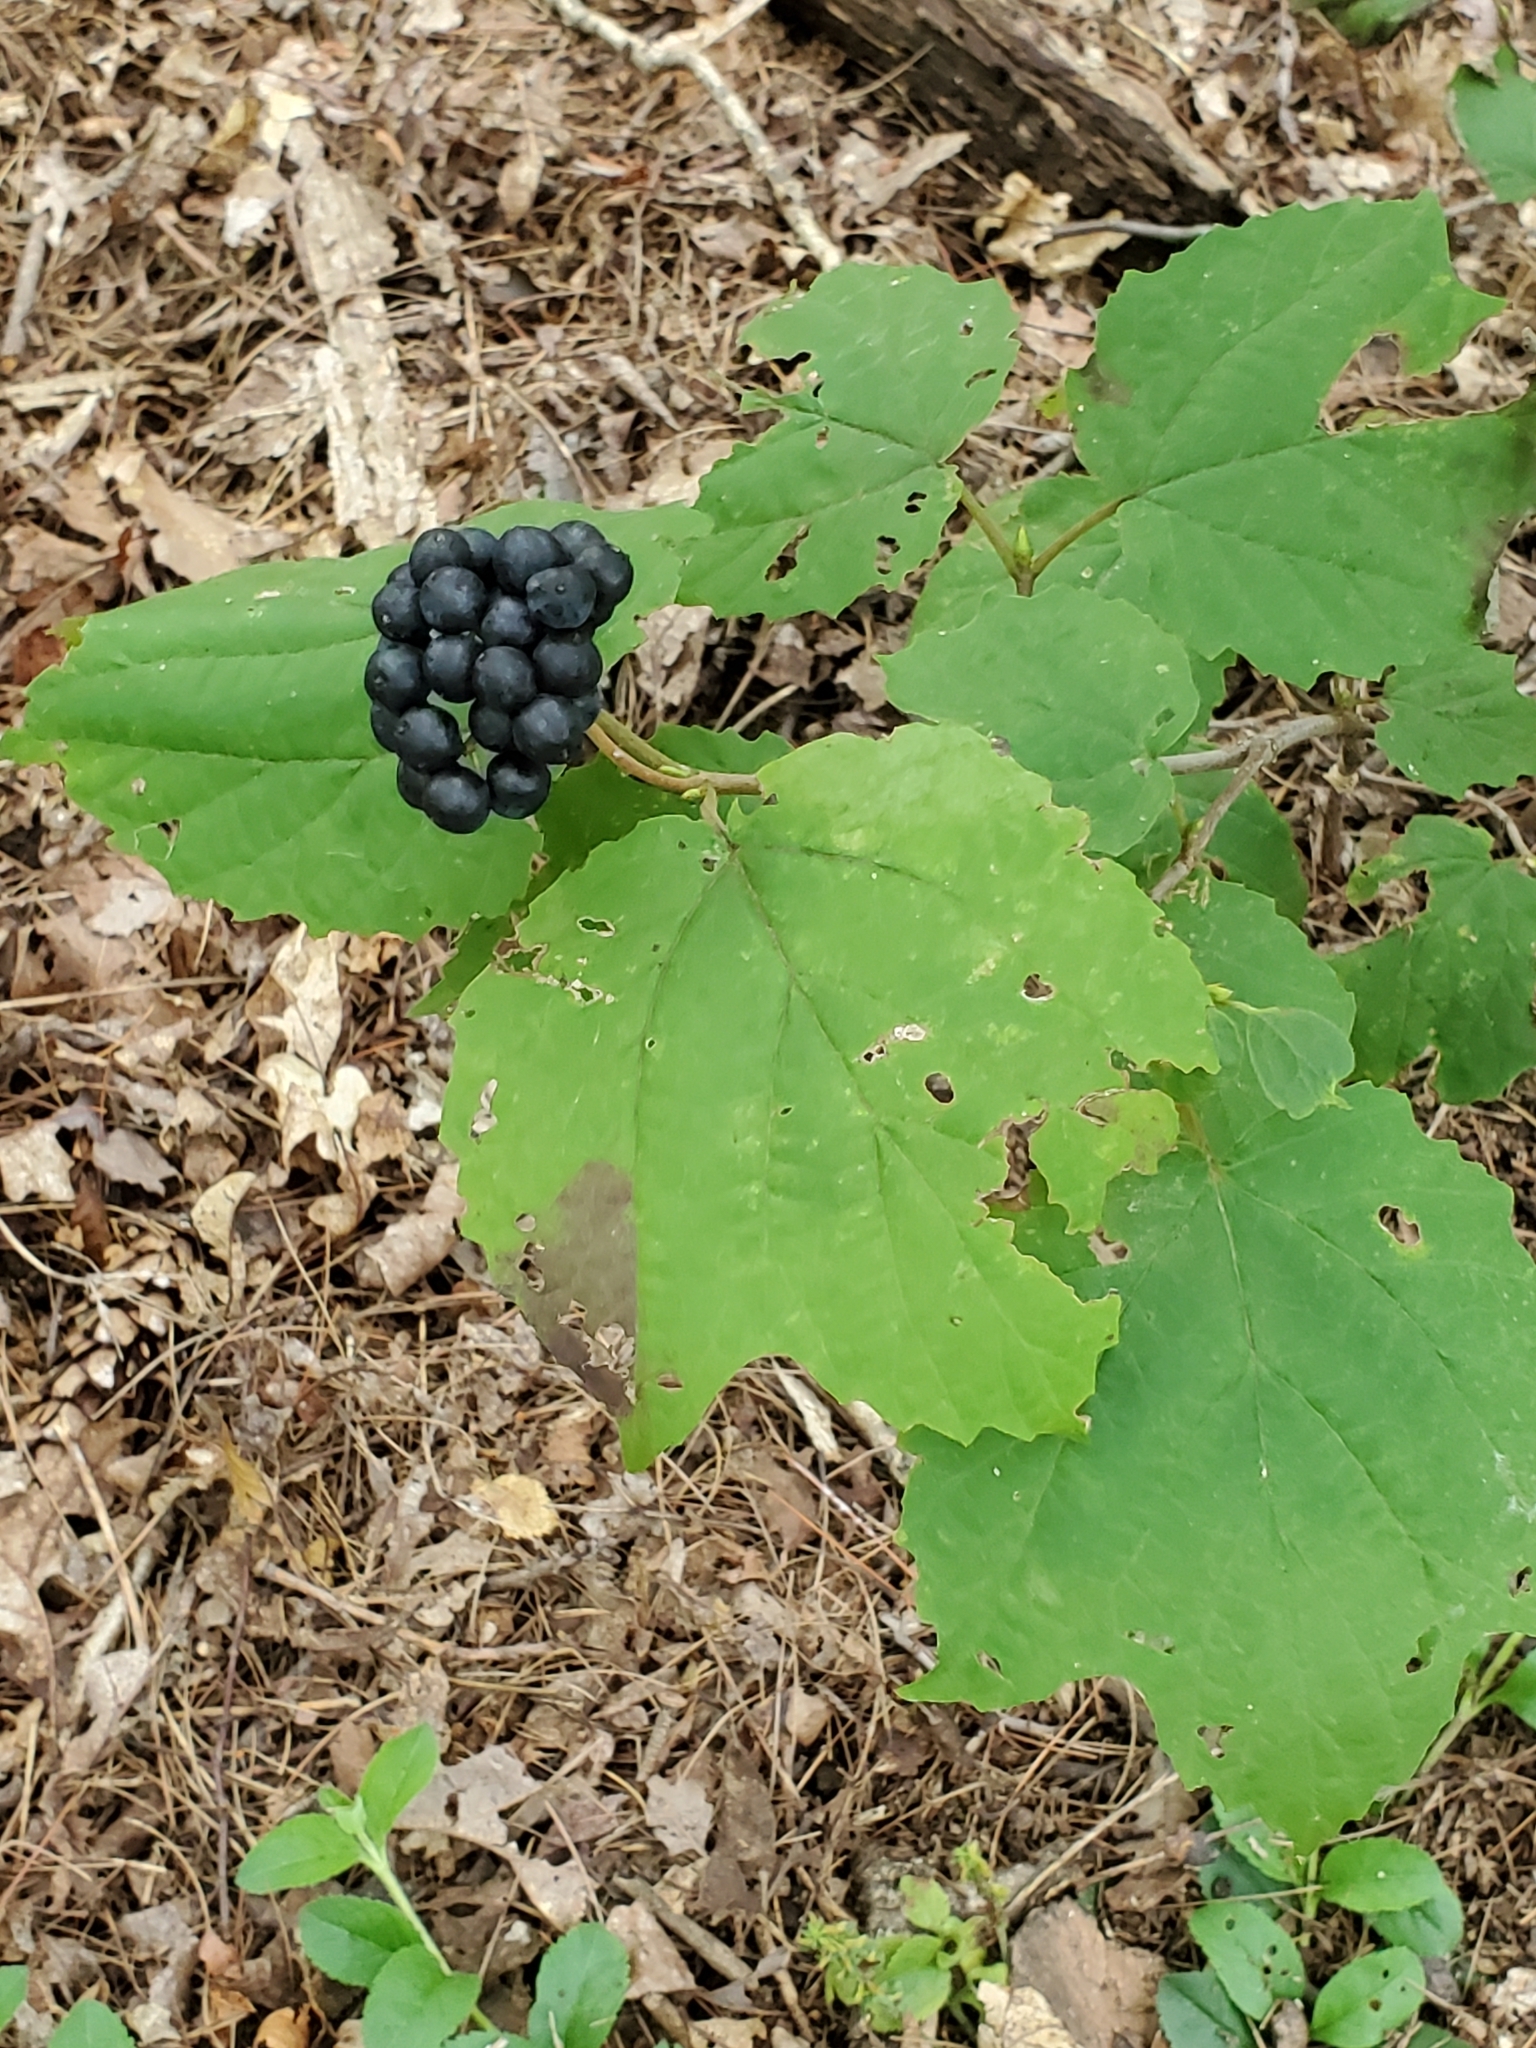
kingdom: Plantae
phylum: Tracheophyta
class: Magnoliopsida
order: Dipsacales
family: Viburnaceae
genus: Viburnum
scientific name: Viburnum acerifolium
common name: Dockmackie
